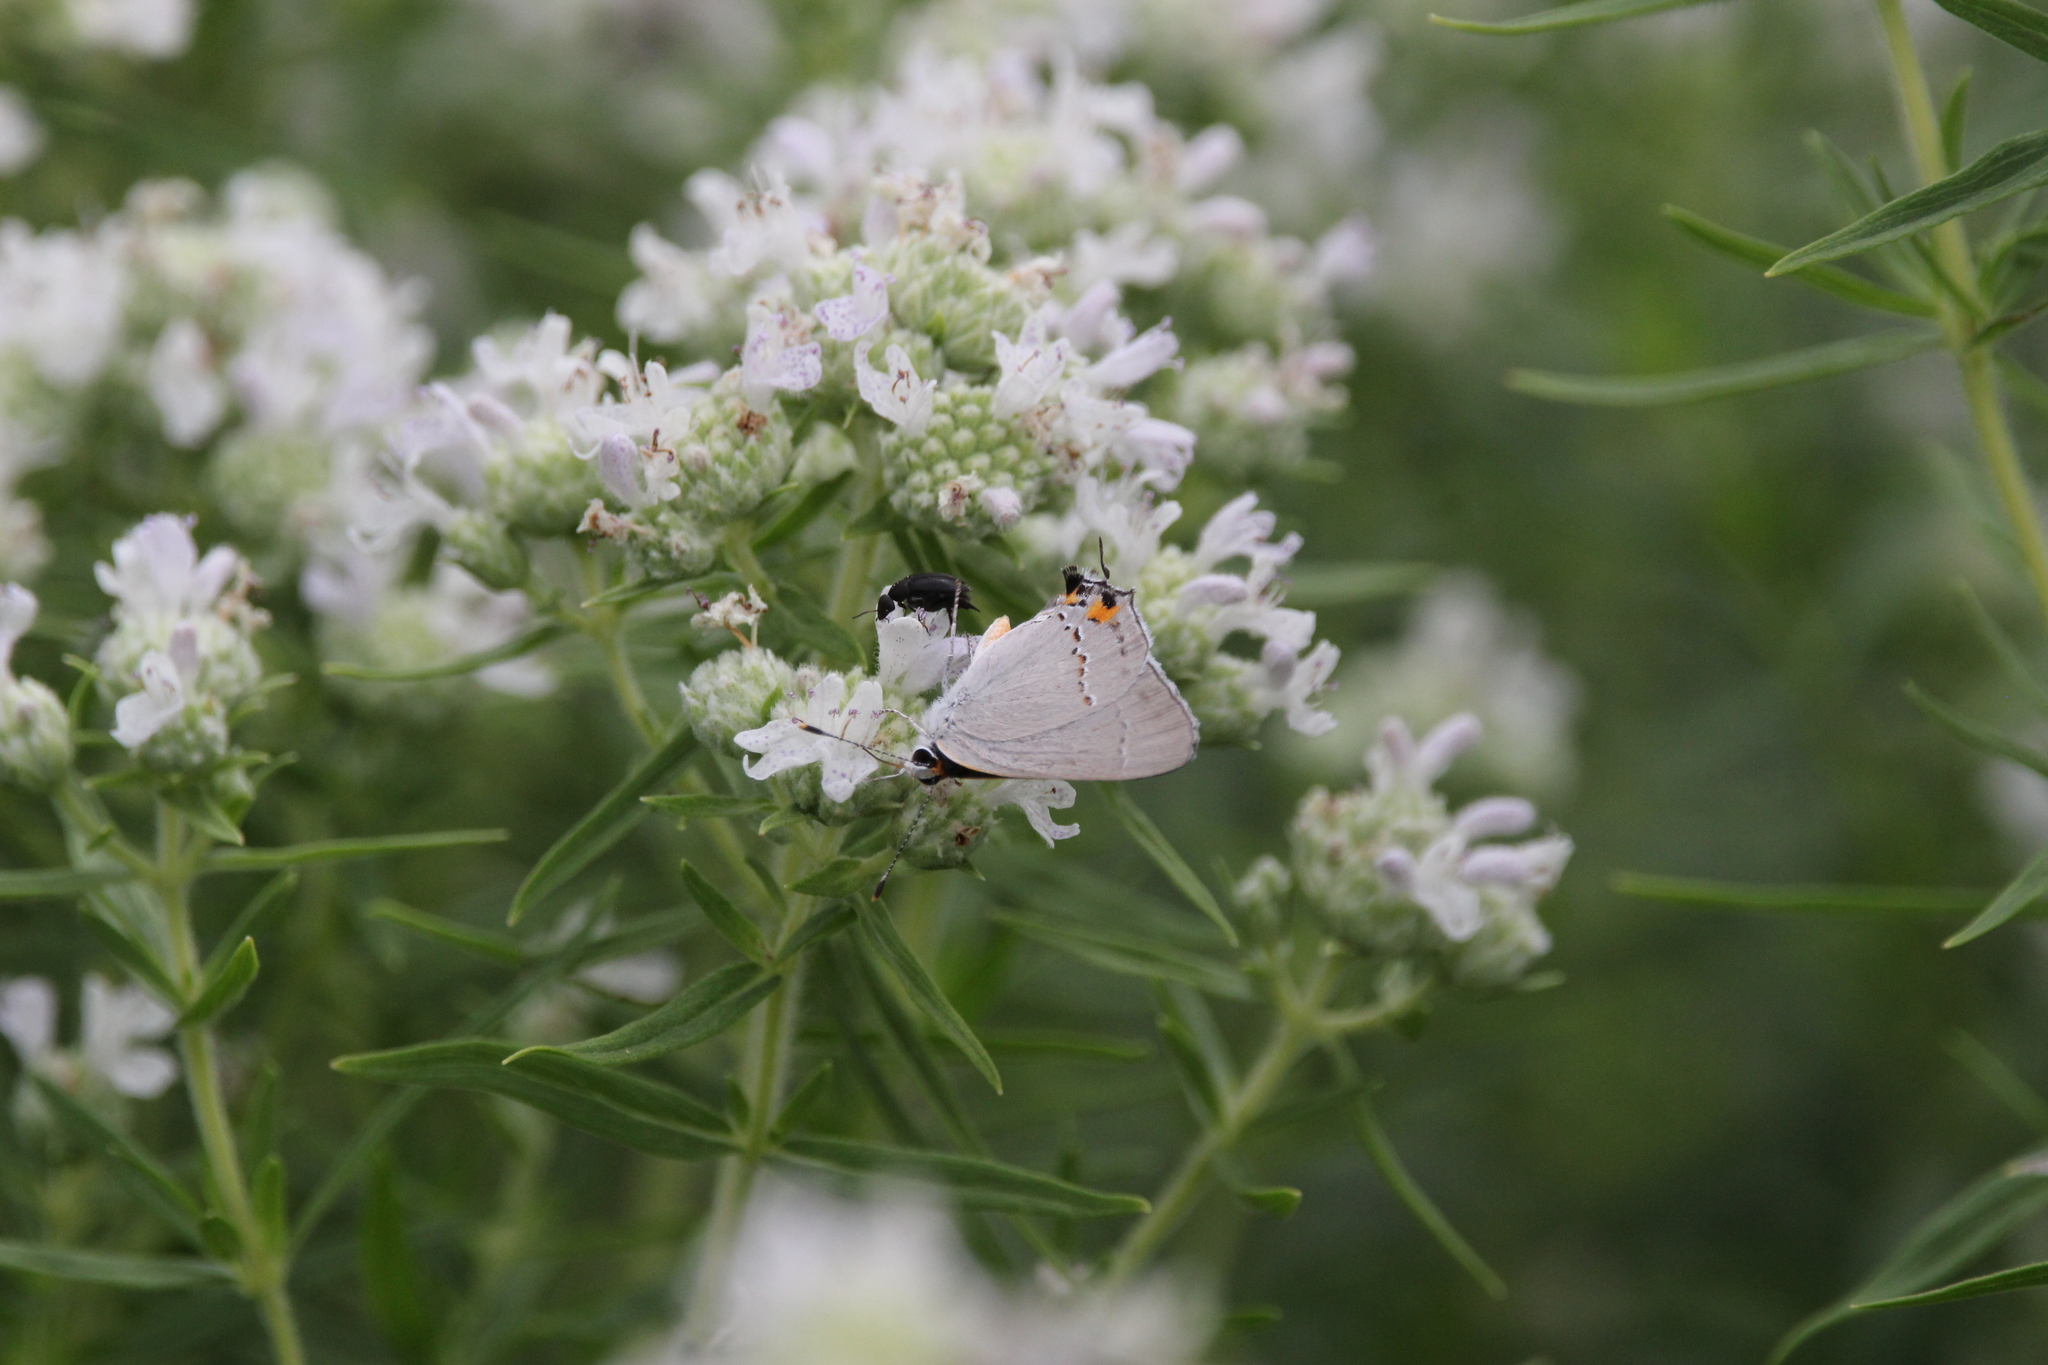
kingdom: Animalia
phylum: Arthropoda
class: Insecta
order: Lepidoptera
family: Lycaenidae
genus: Strymon
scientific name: Strymon melinus
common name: Gray hairstreak
